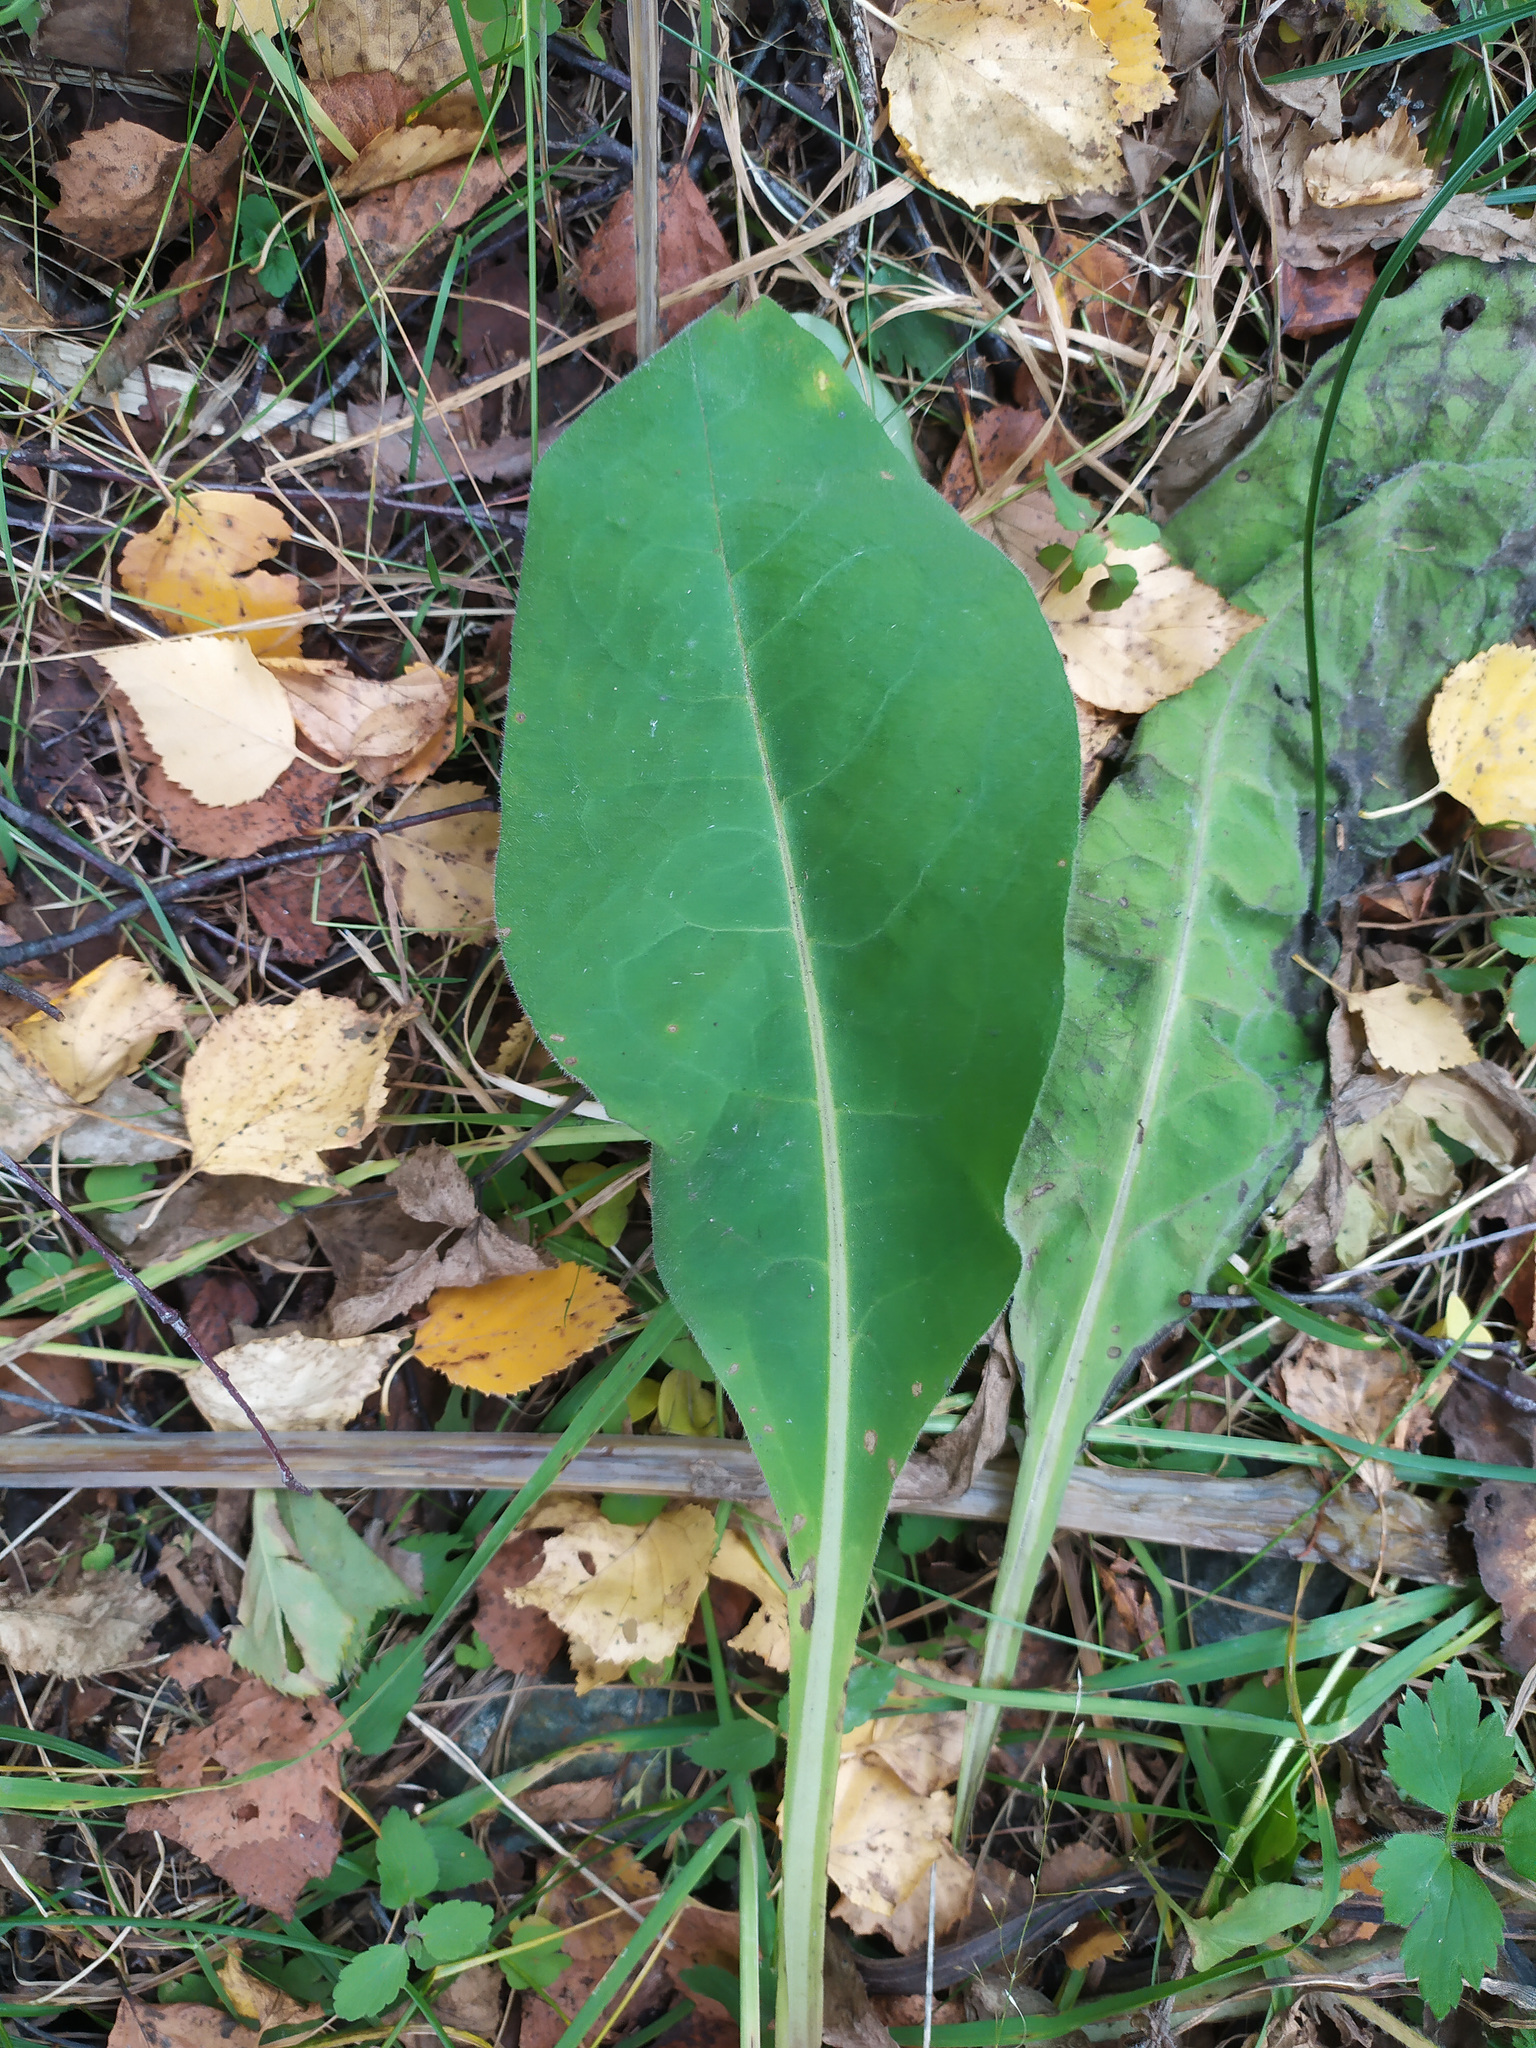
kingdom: Plantae
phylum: Tracheophyta
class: Magnoliopsida
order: Boraginales
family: Boraginaceae
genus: Pulmonaria
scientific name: Pulmonaria mollis
